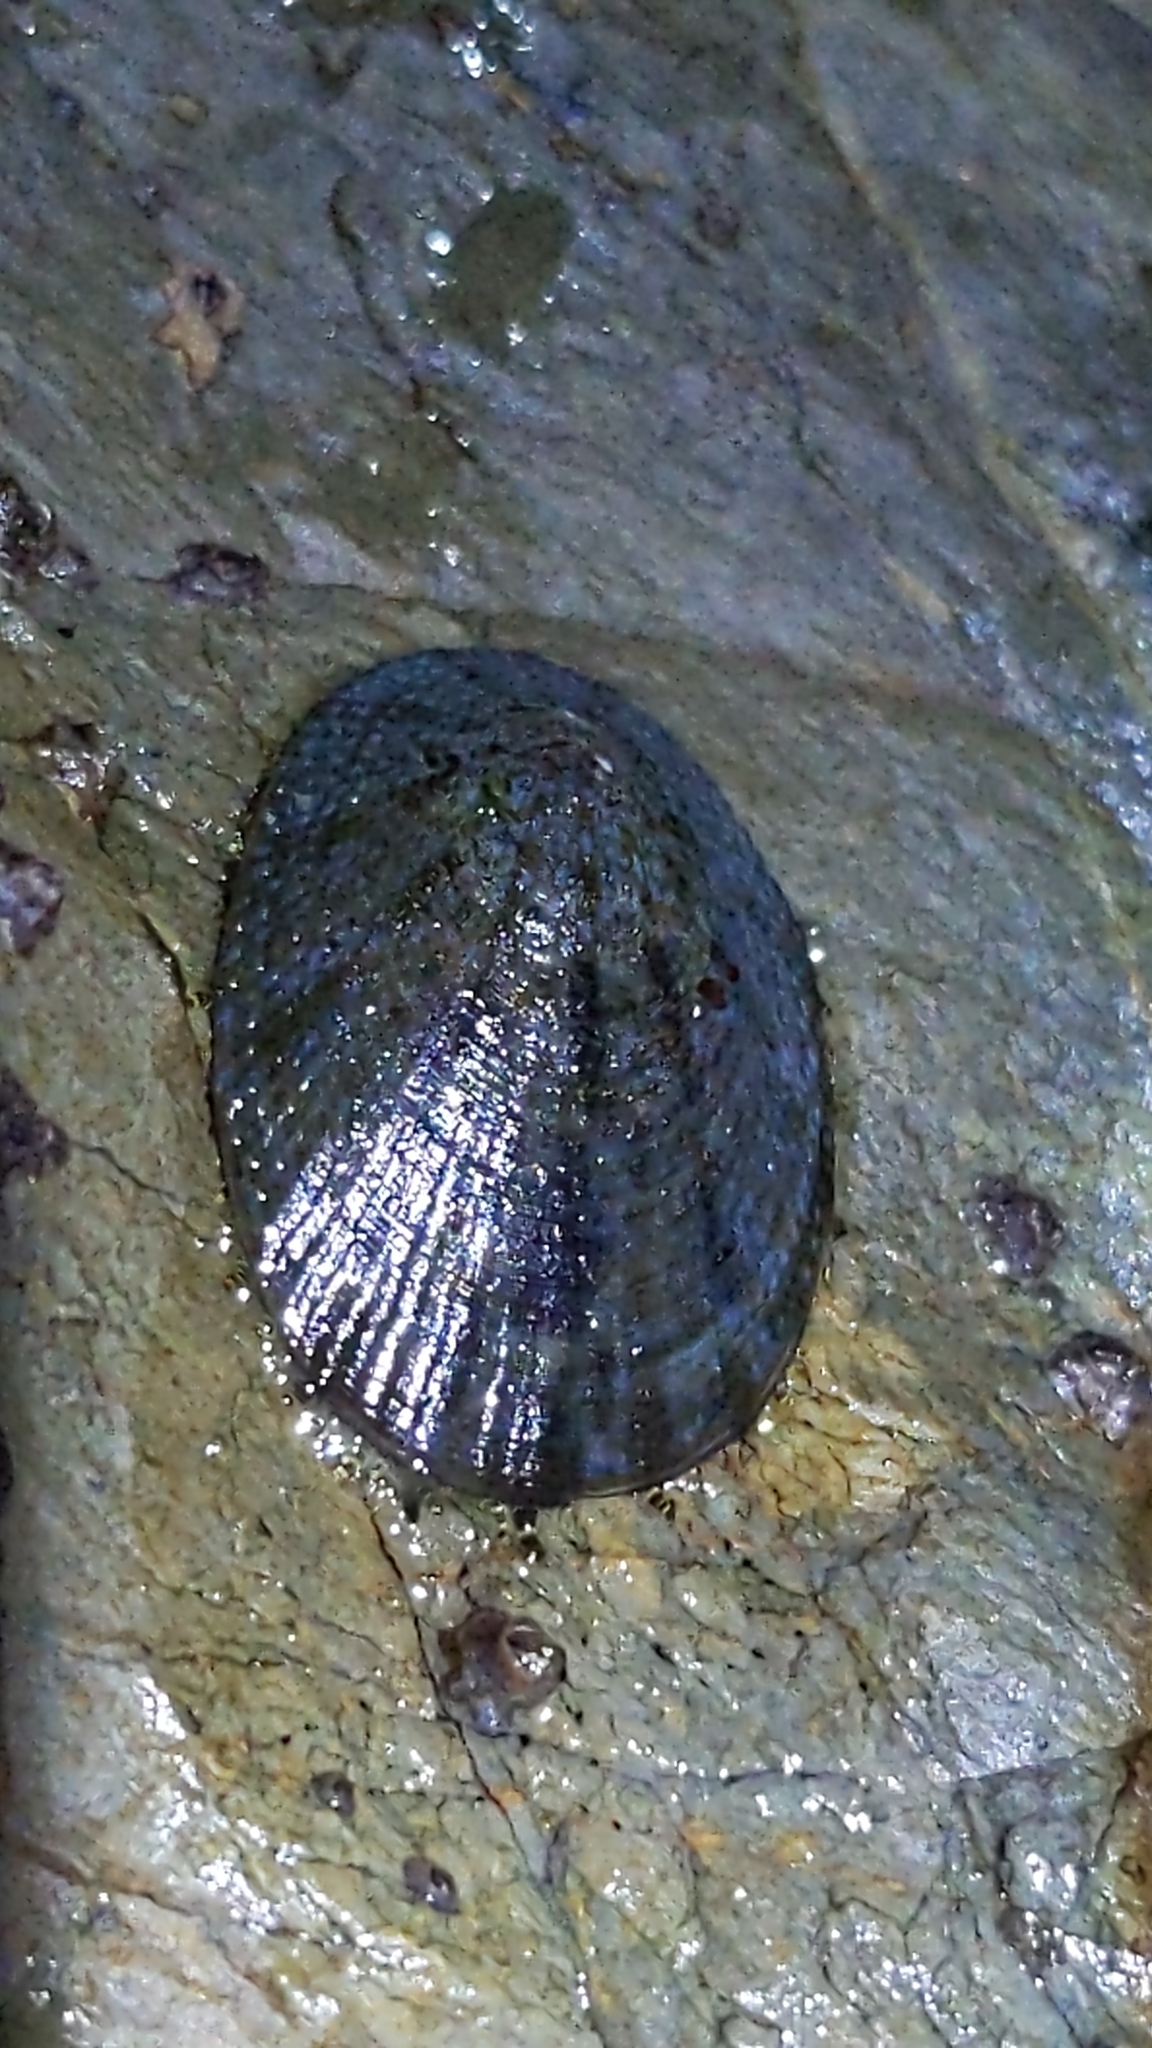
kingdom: Animalia
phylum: Mollusca
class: Gastropoda
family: Nacellidae
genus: Cellana
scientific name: Cellana radians
